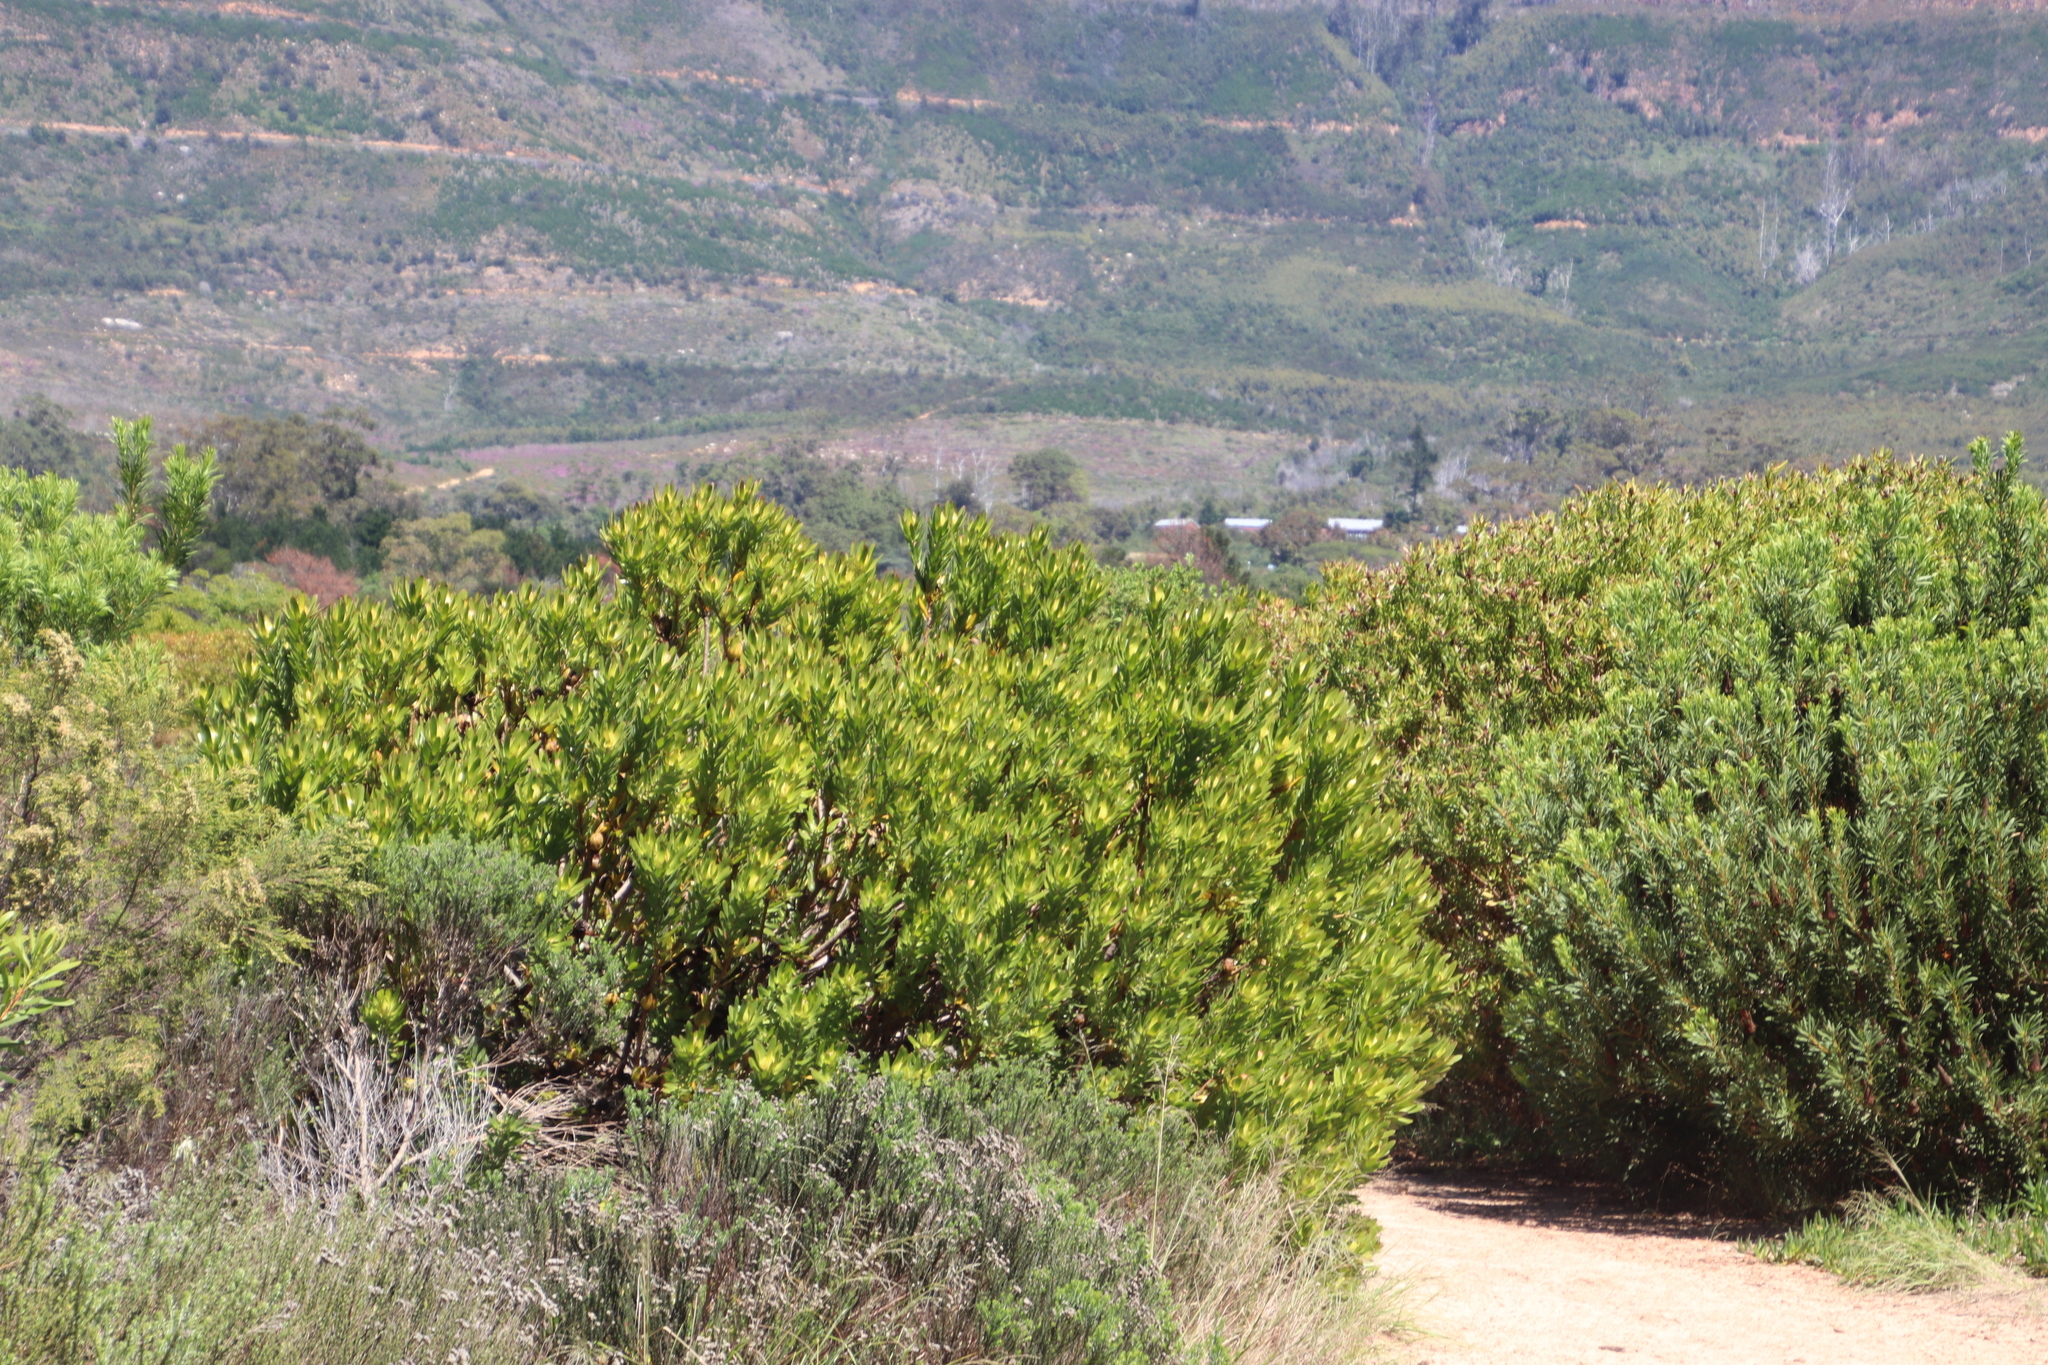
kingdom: Plantae
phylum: Tracheophyta
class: Magnoliopsida
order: Proteales
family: Proteaceae
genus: Leucadendron
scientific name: Leucadendron laureolum
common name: Golden sunshinebush
